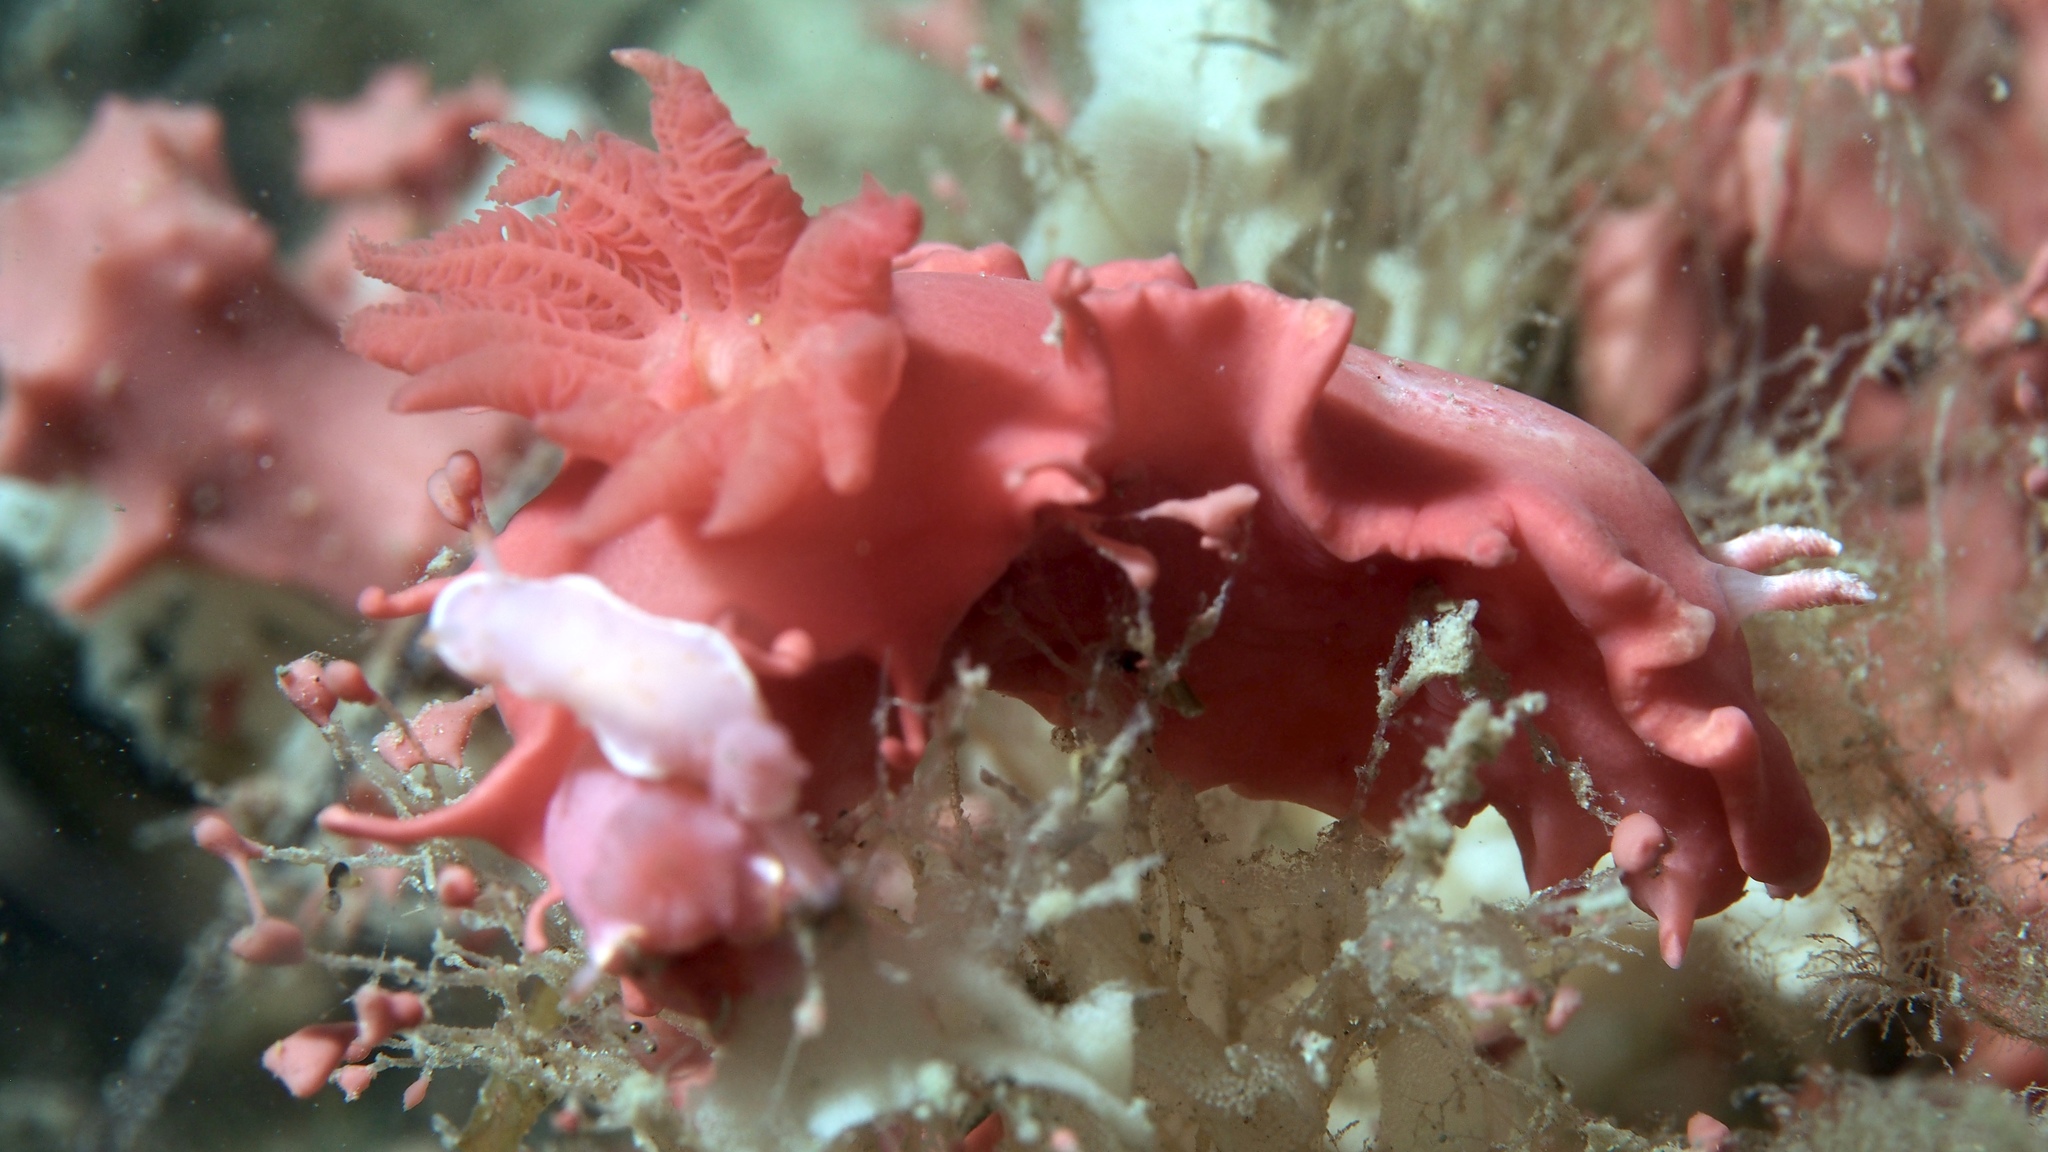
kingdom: Animalia
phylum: Mollusca
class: Gastropoda
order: Nudibranchia
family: Chromodorididae
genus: Verconia
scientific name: Verconia verconis
